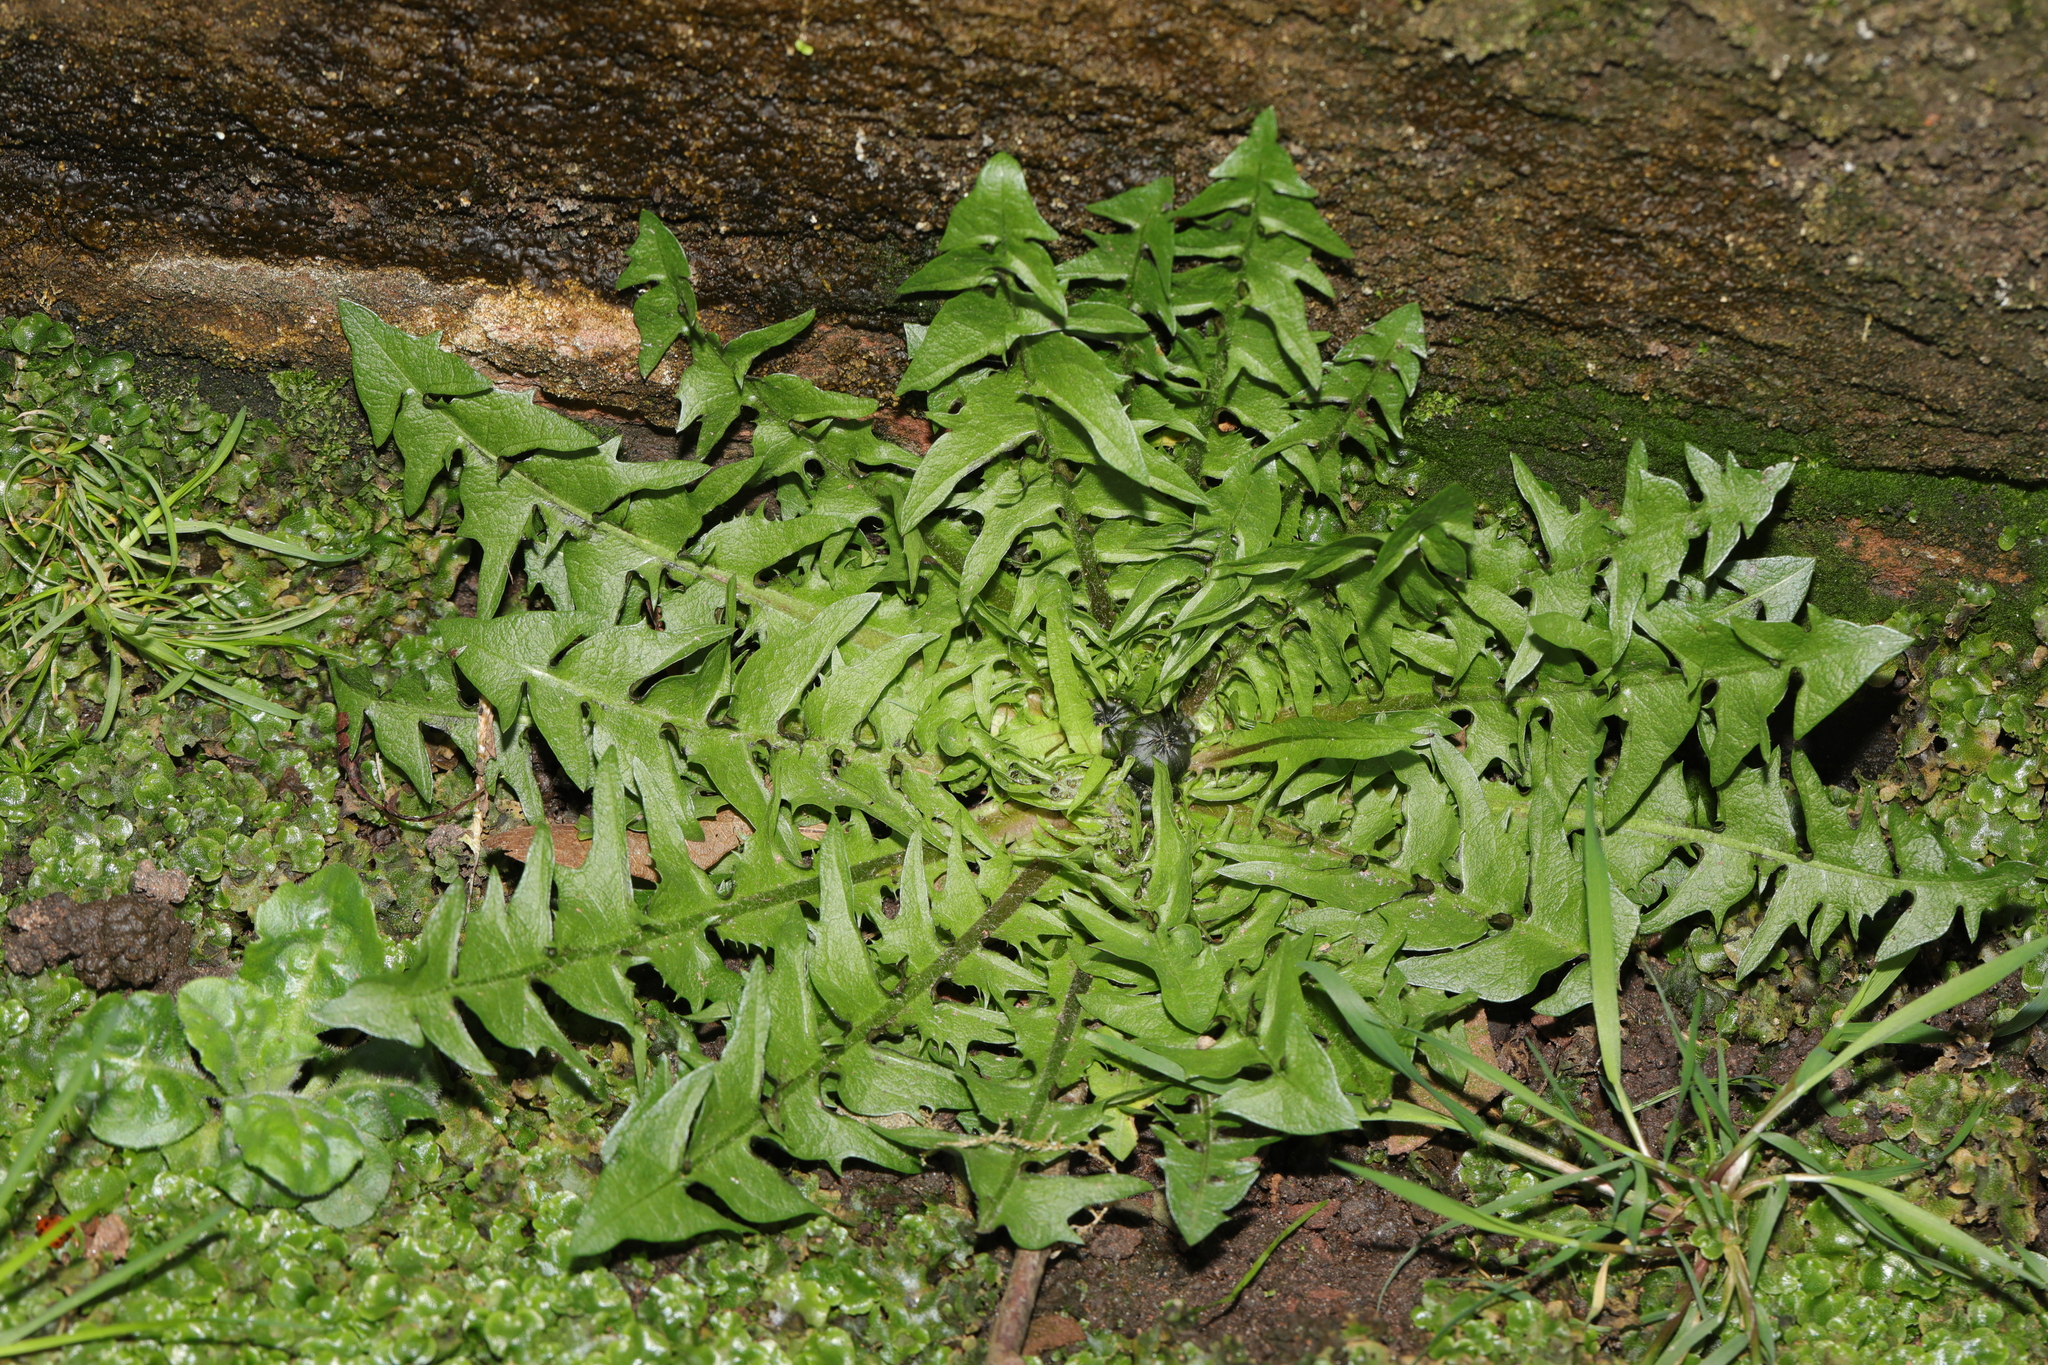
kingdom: Plantae
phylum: Tracheophyta
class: Magnoliopsida
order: Asterales
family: Asteraceae
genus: Sonchus
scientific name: Sonchus oleraceus
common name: Common sowthistle
